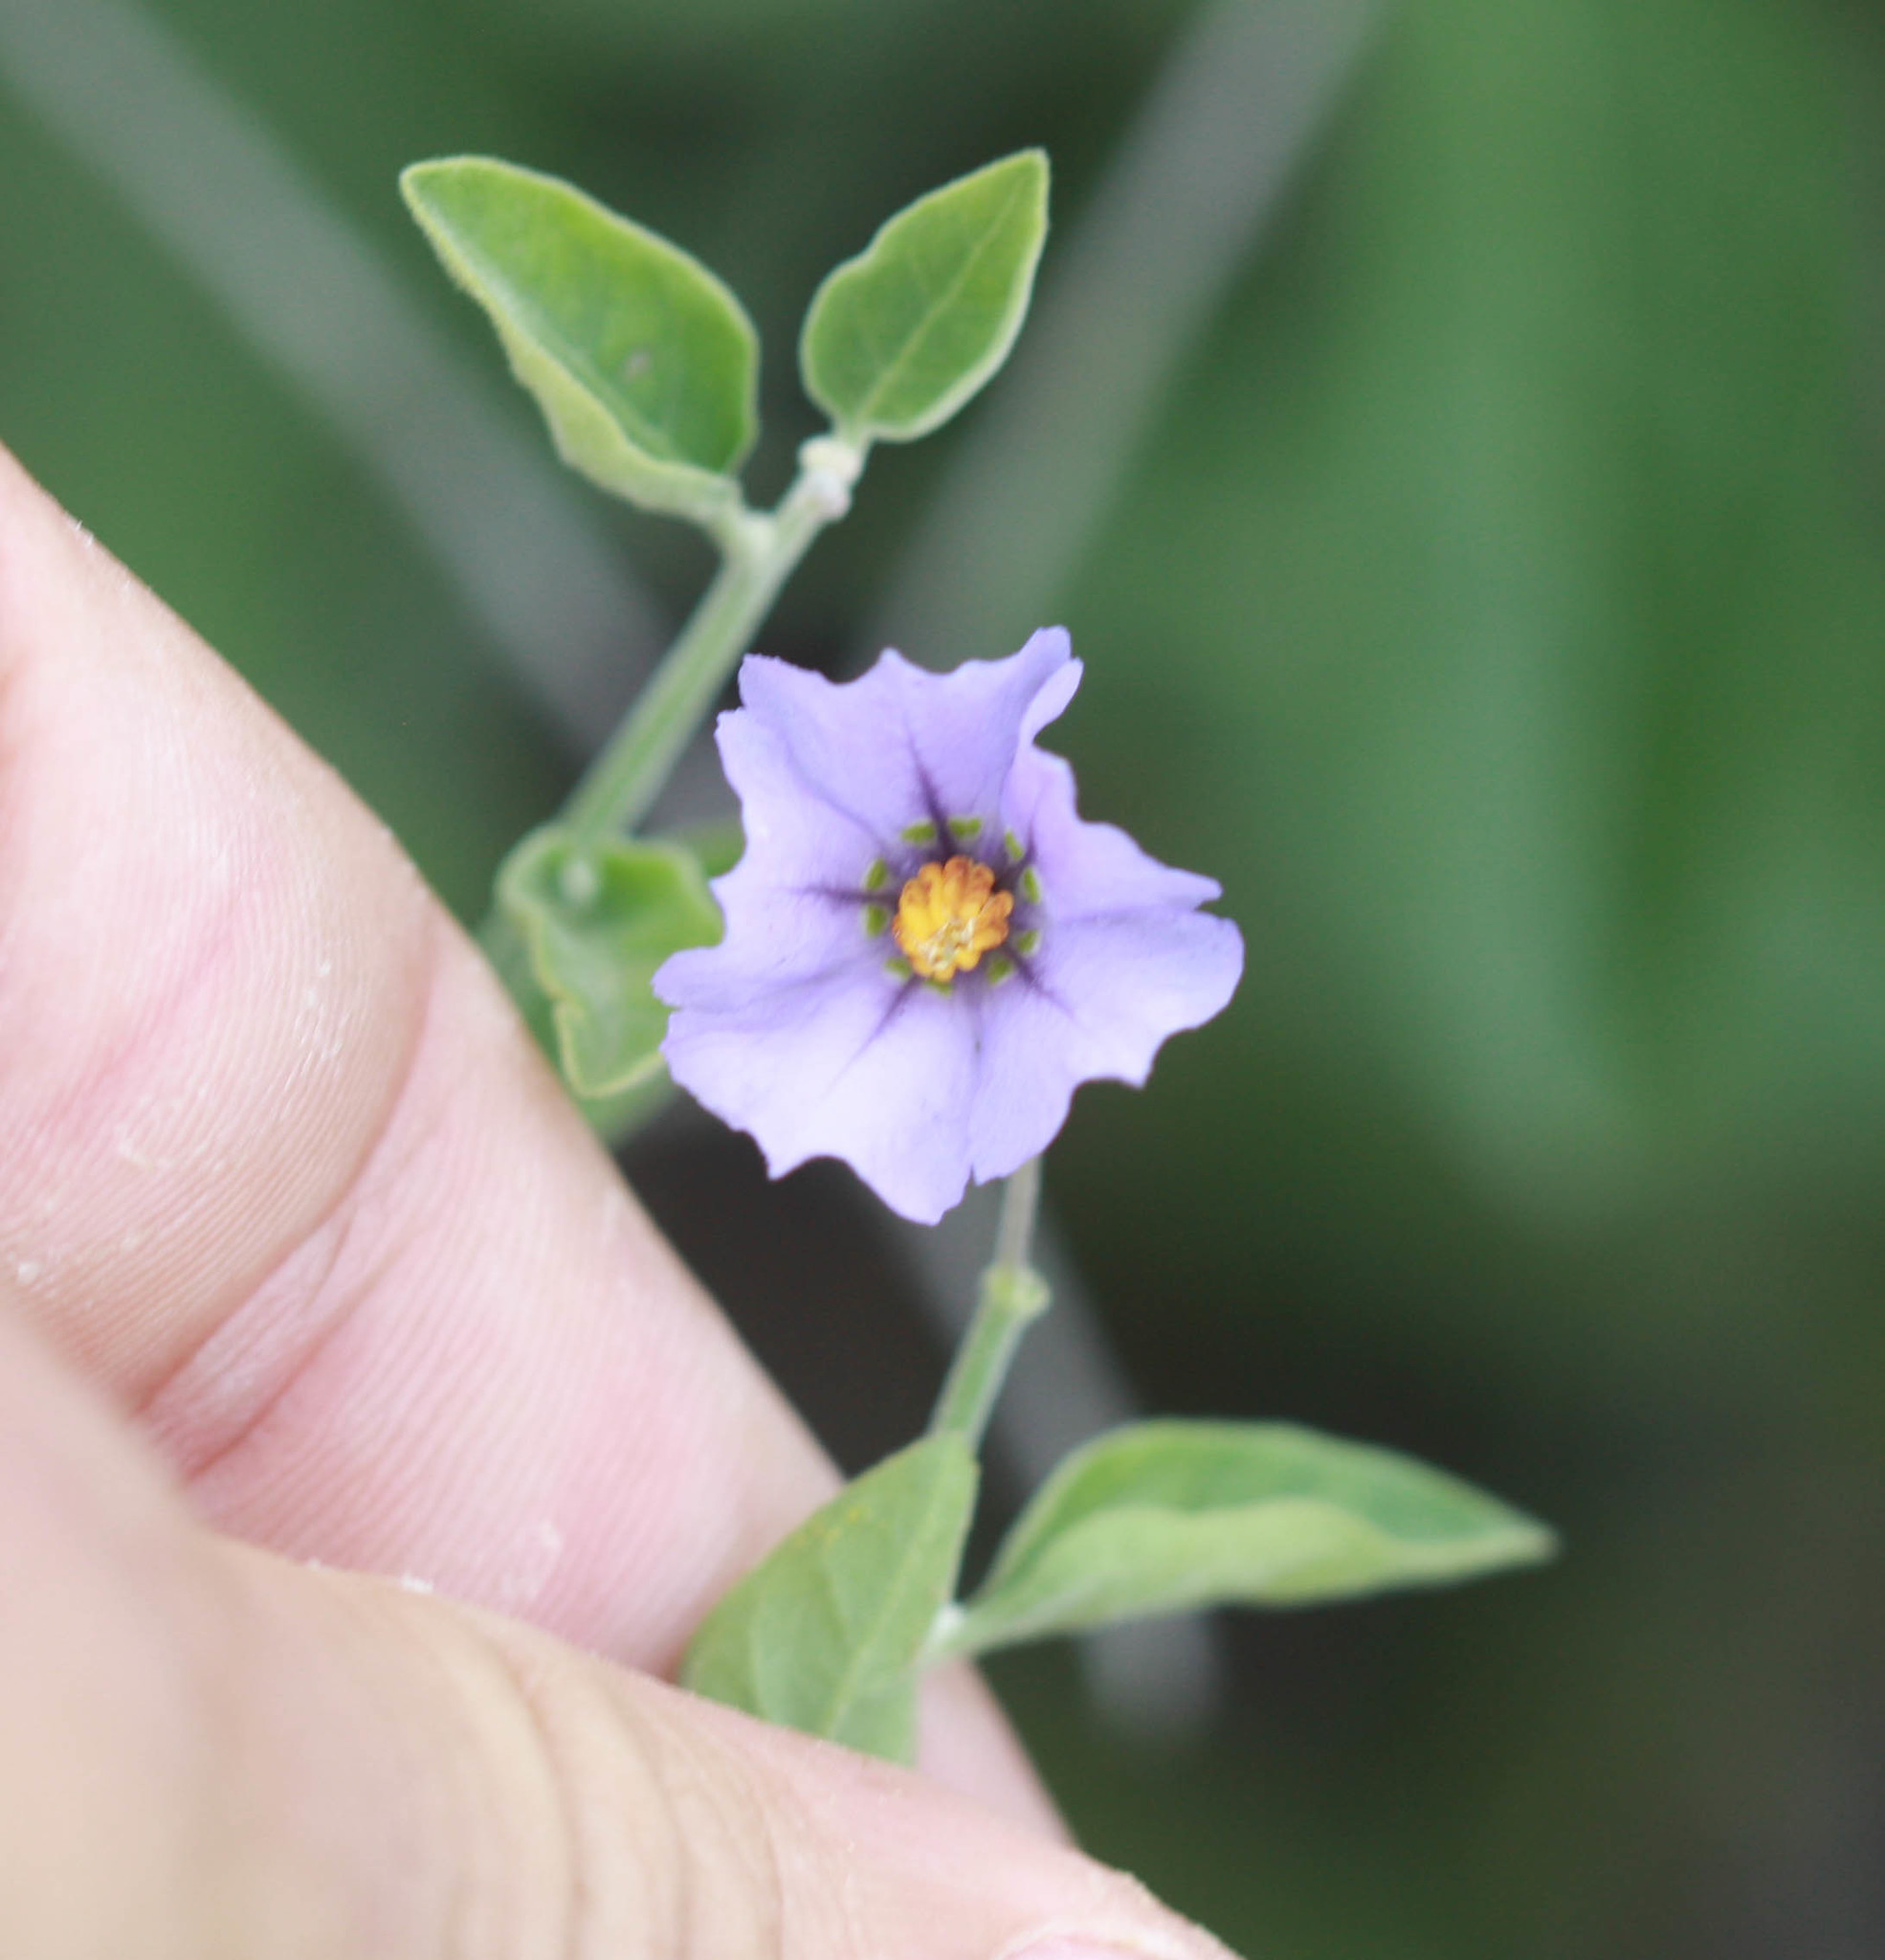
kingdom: Plantae
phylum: Tracheophyta
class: Magnoliopsida
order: Solanales
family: Solanaceae
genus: Solanum
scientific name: Solanum umbelliferum
